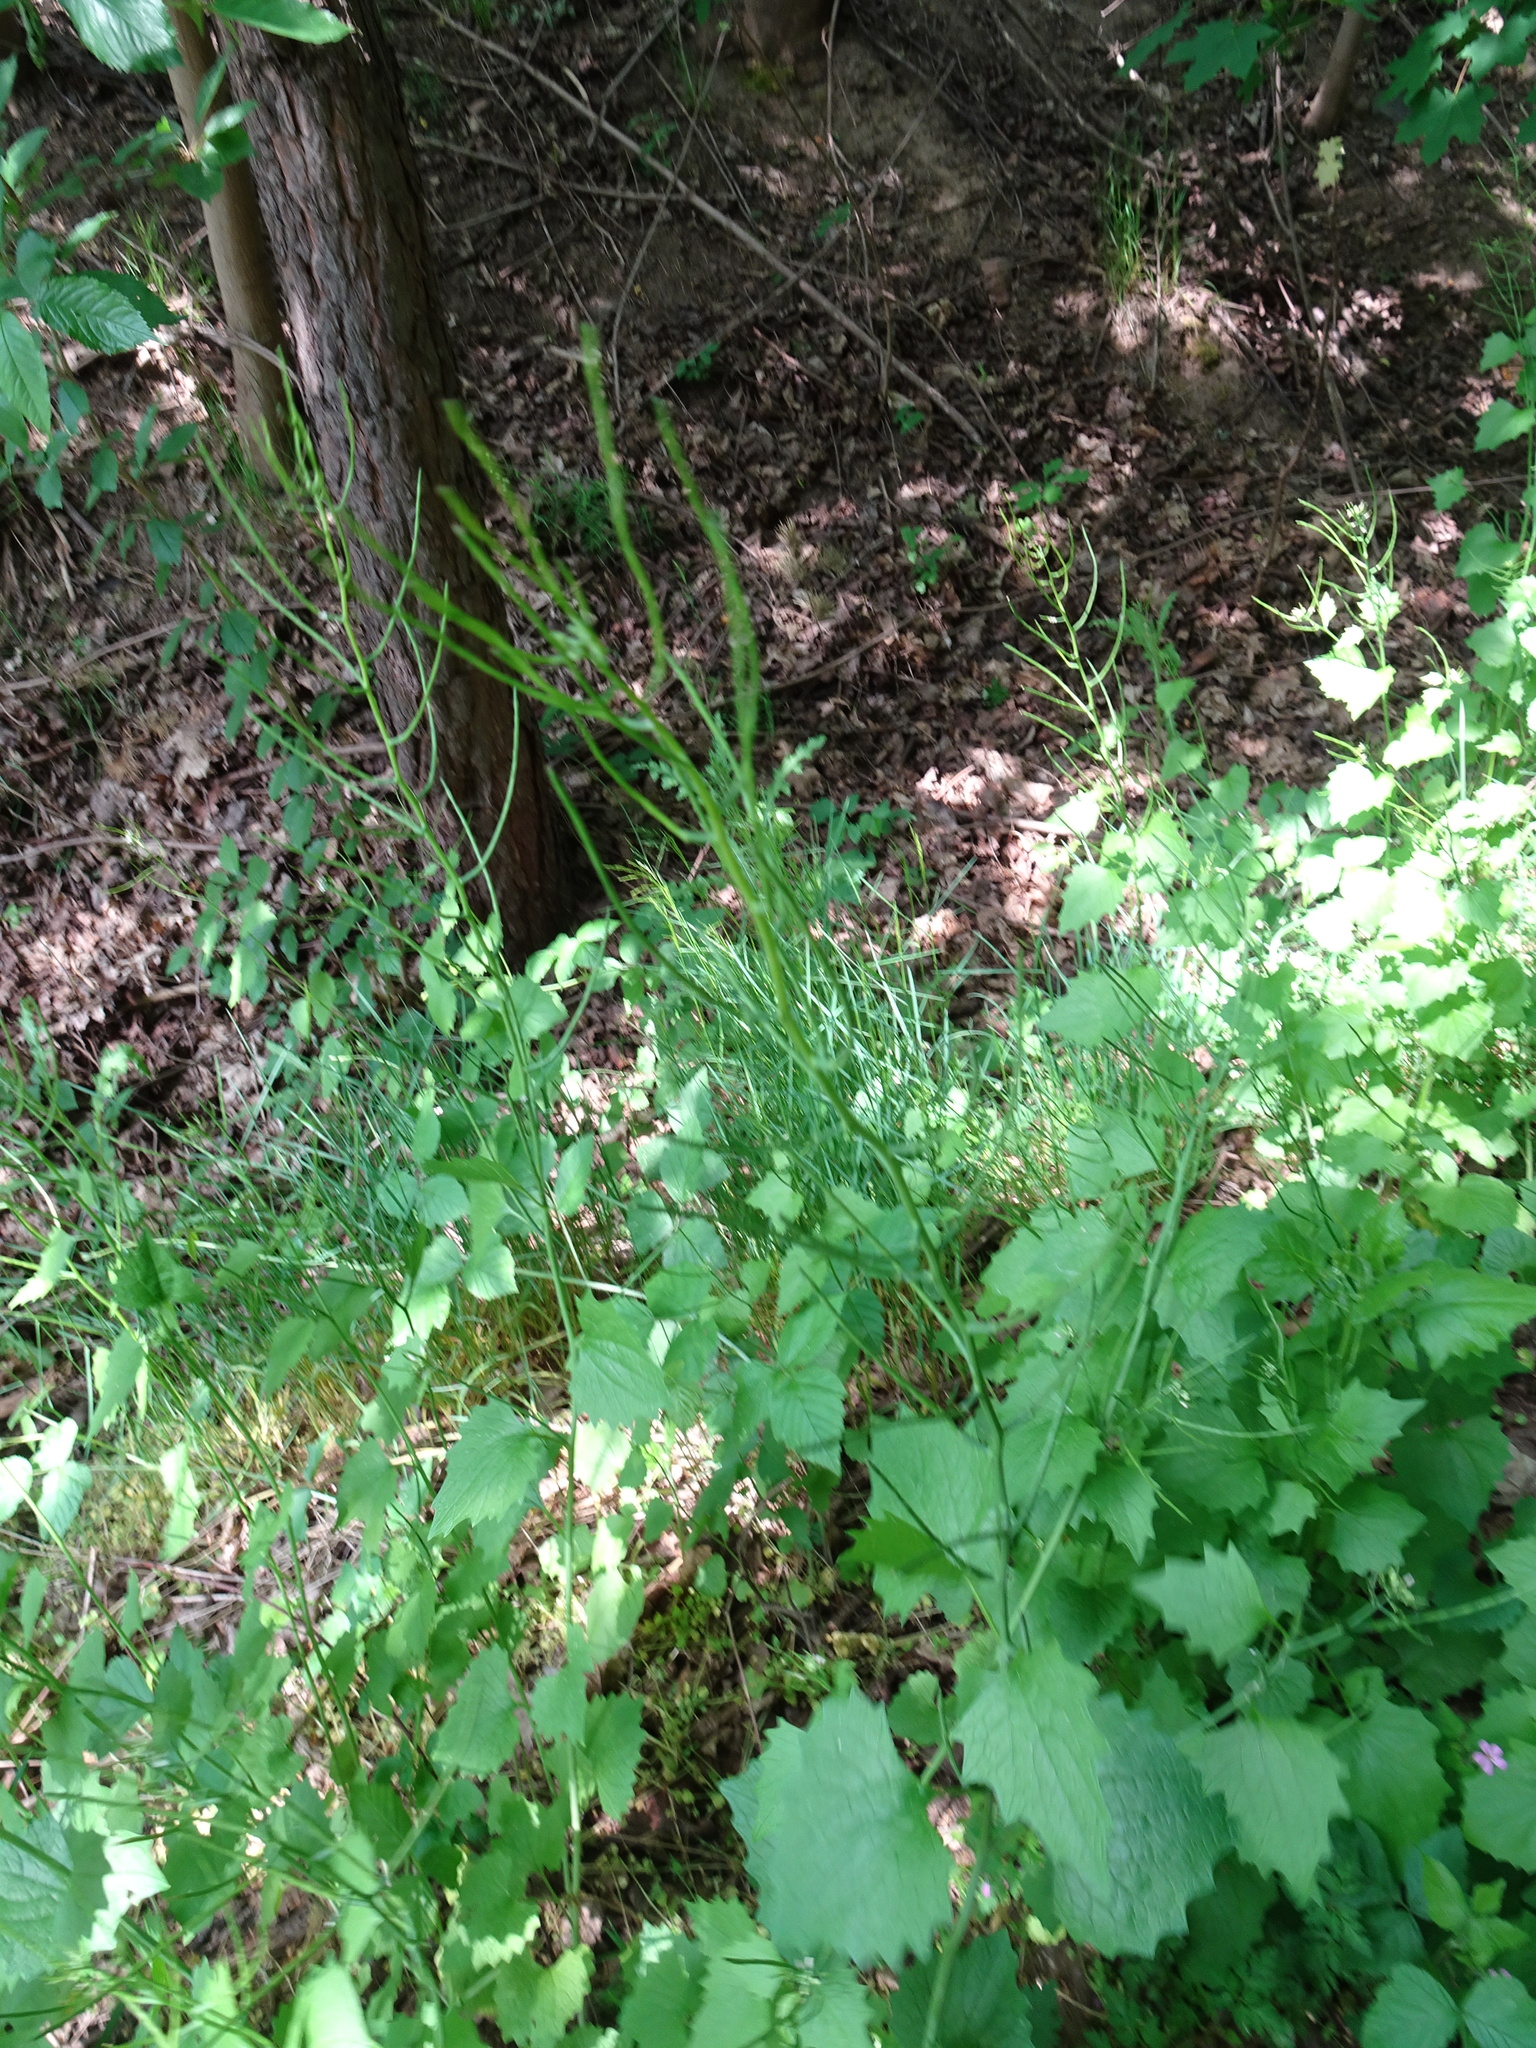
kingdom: Plantae
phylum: Tracheophyta
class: Magnoliopsida
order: Brassicales
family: Brassicaceae
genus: Alliaria
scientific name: Alliaria petiolata
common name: Garlic mustard
